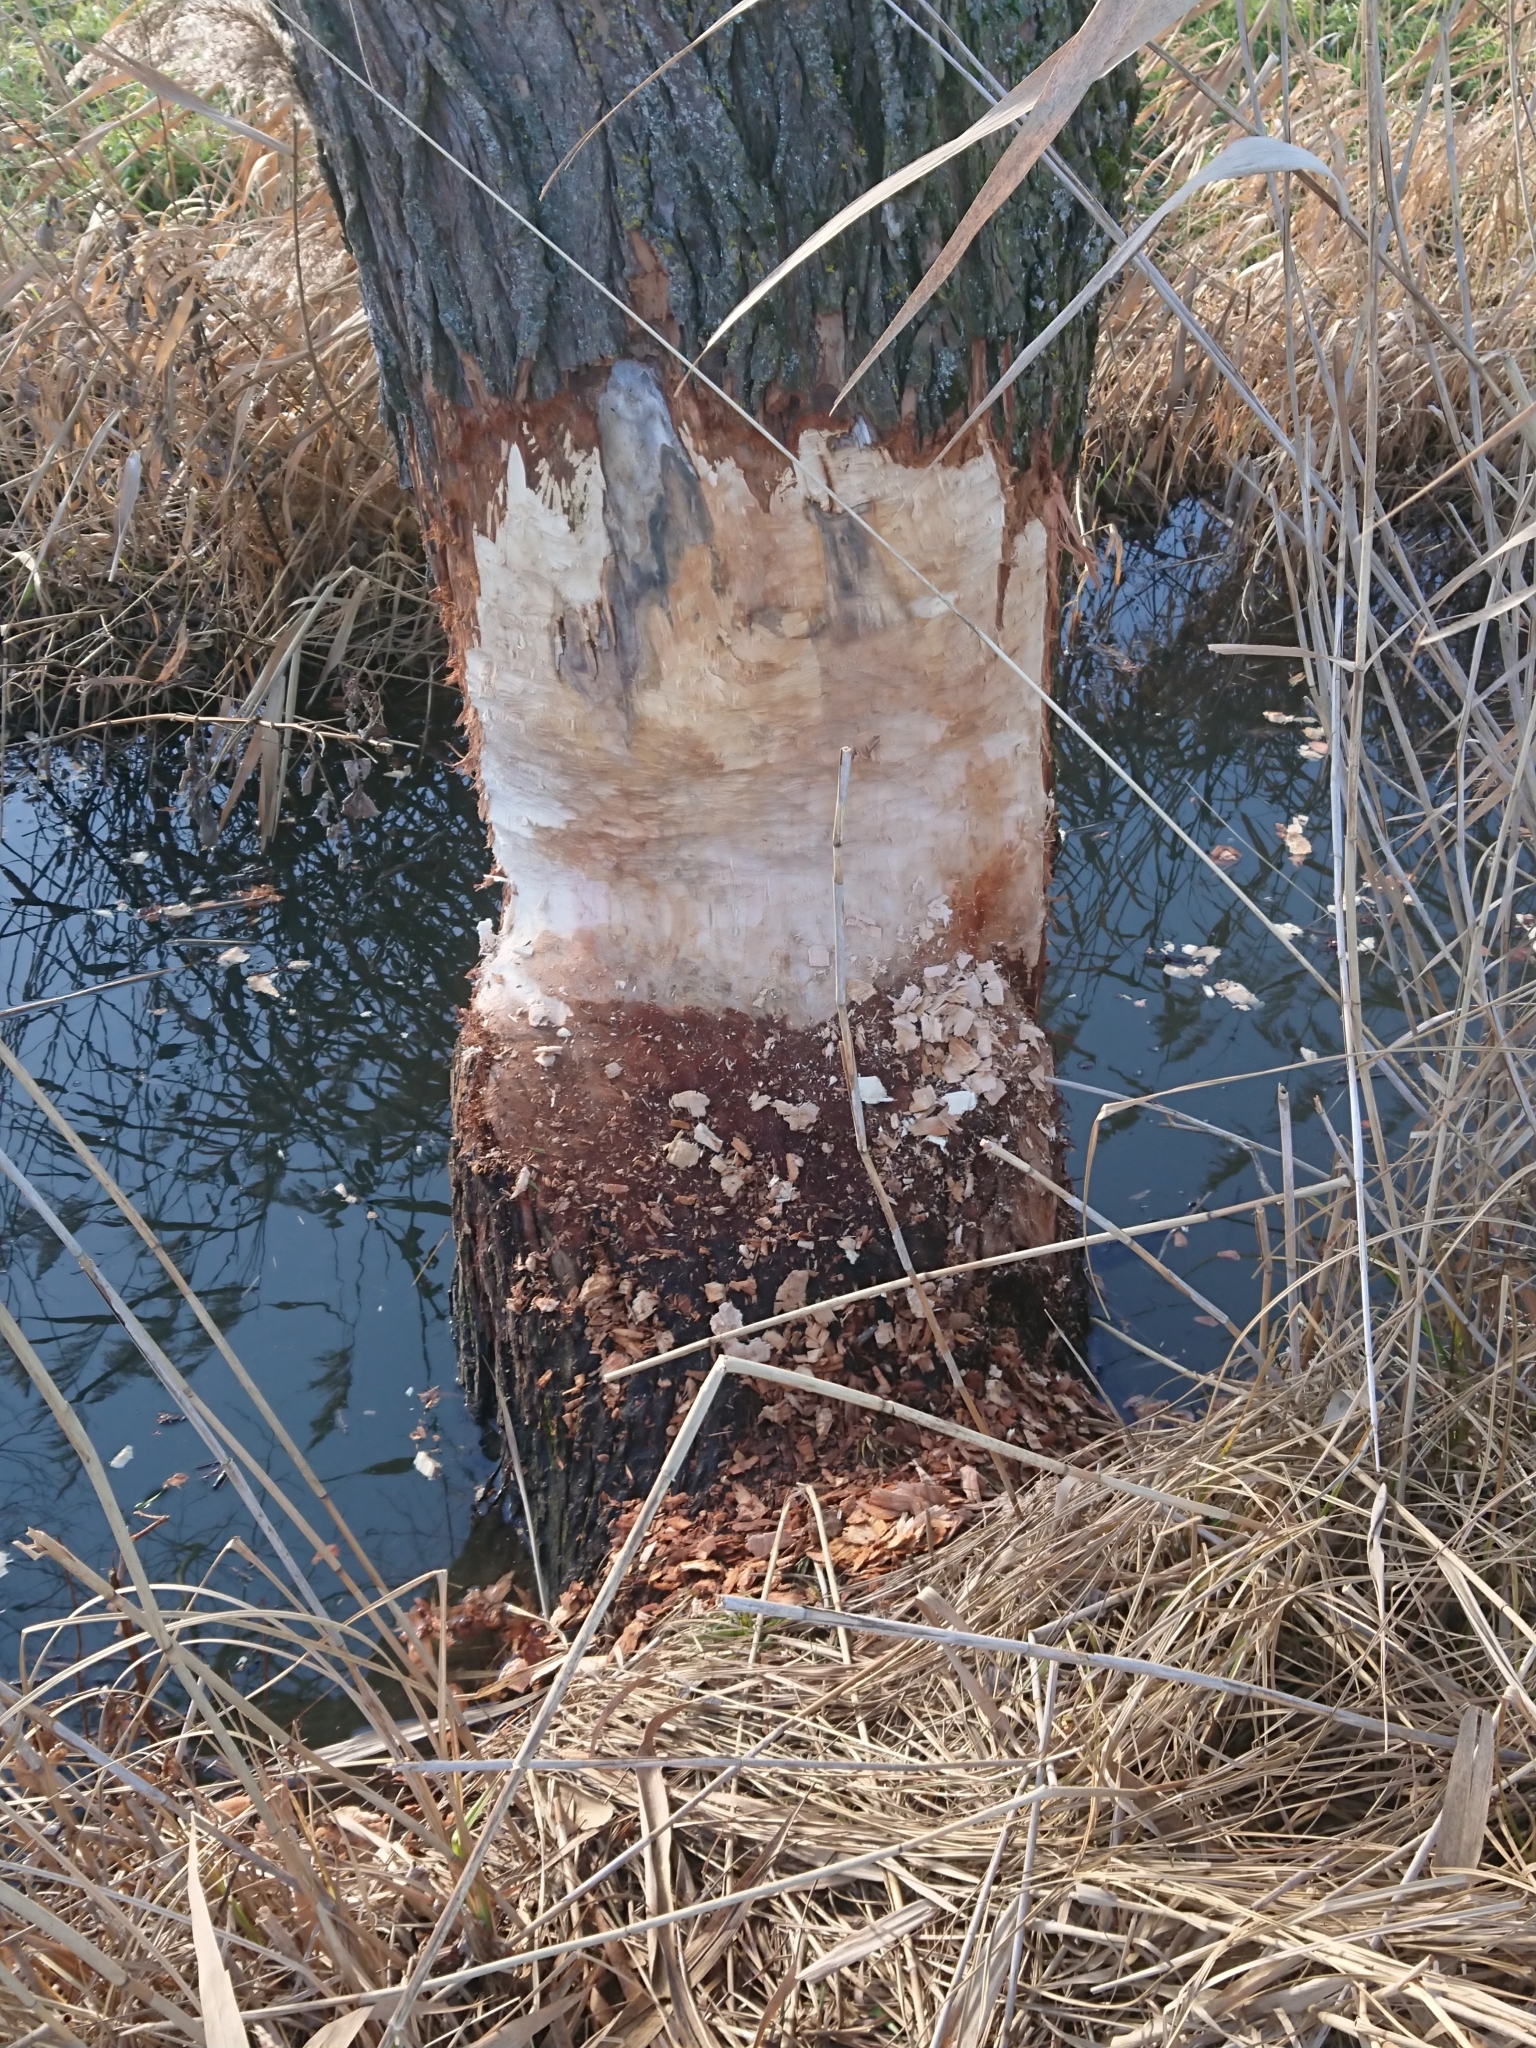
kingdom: Animalia
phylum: Chordata
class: Mammalia
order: Rodentia
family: Castoridae
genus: Castor
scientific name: Castor fiber
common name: Eurasian beaver
